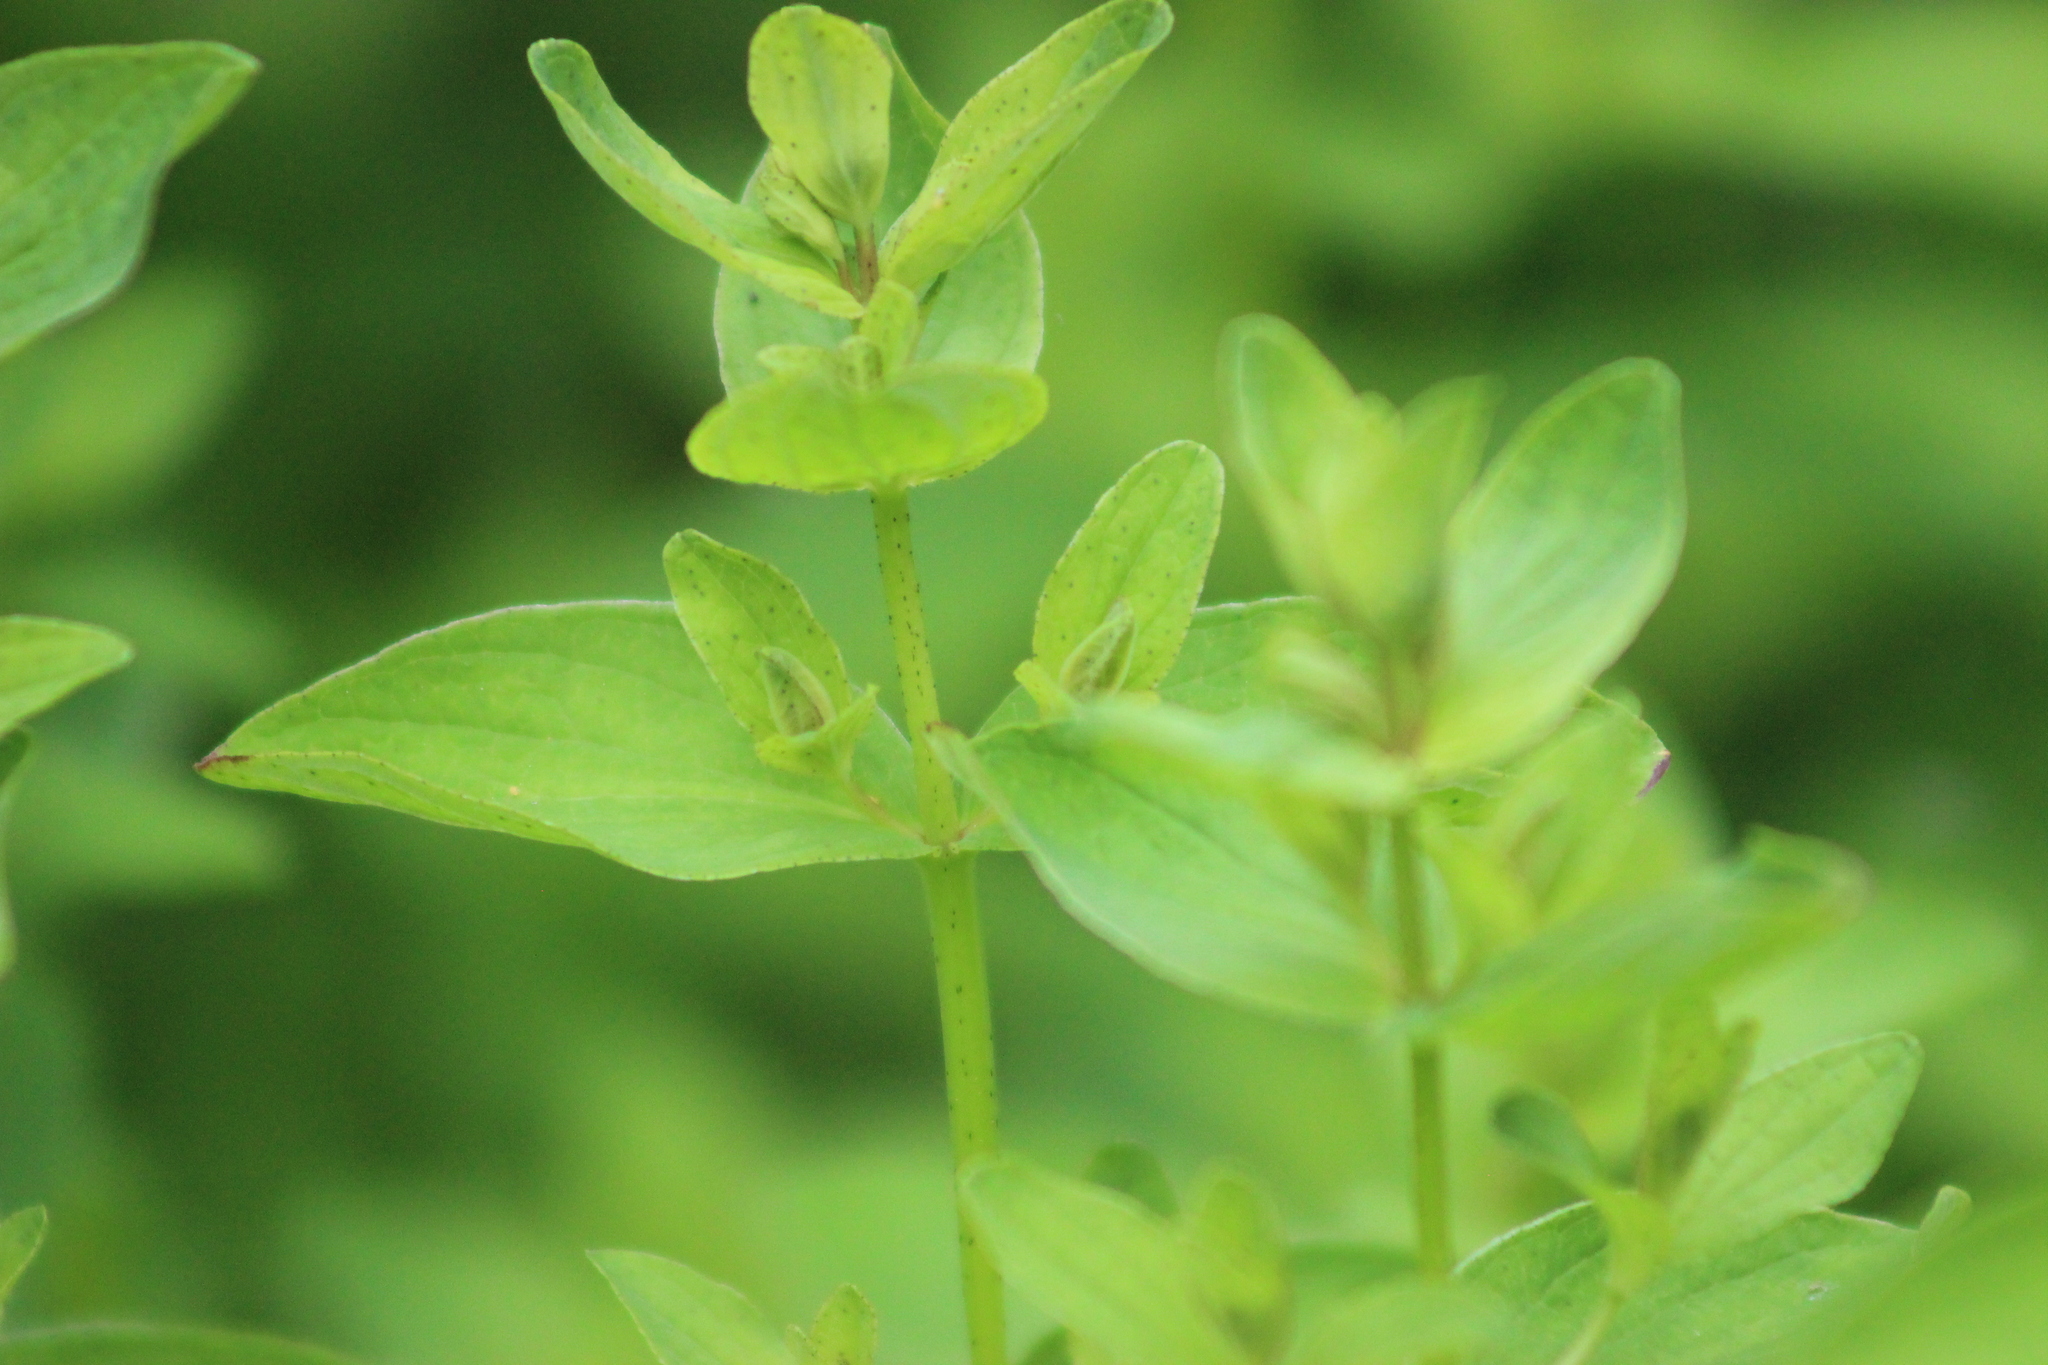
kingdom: Plantae
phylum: Tracheophyta
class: Magnoliopsida
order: Malpighiales
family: Hypericaceae
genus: Hypericum
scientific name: Hypericum maculatum
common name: Imperforate st. john's-wort
